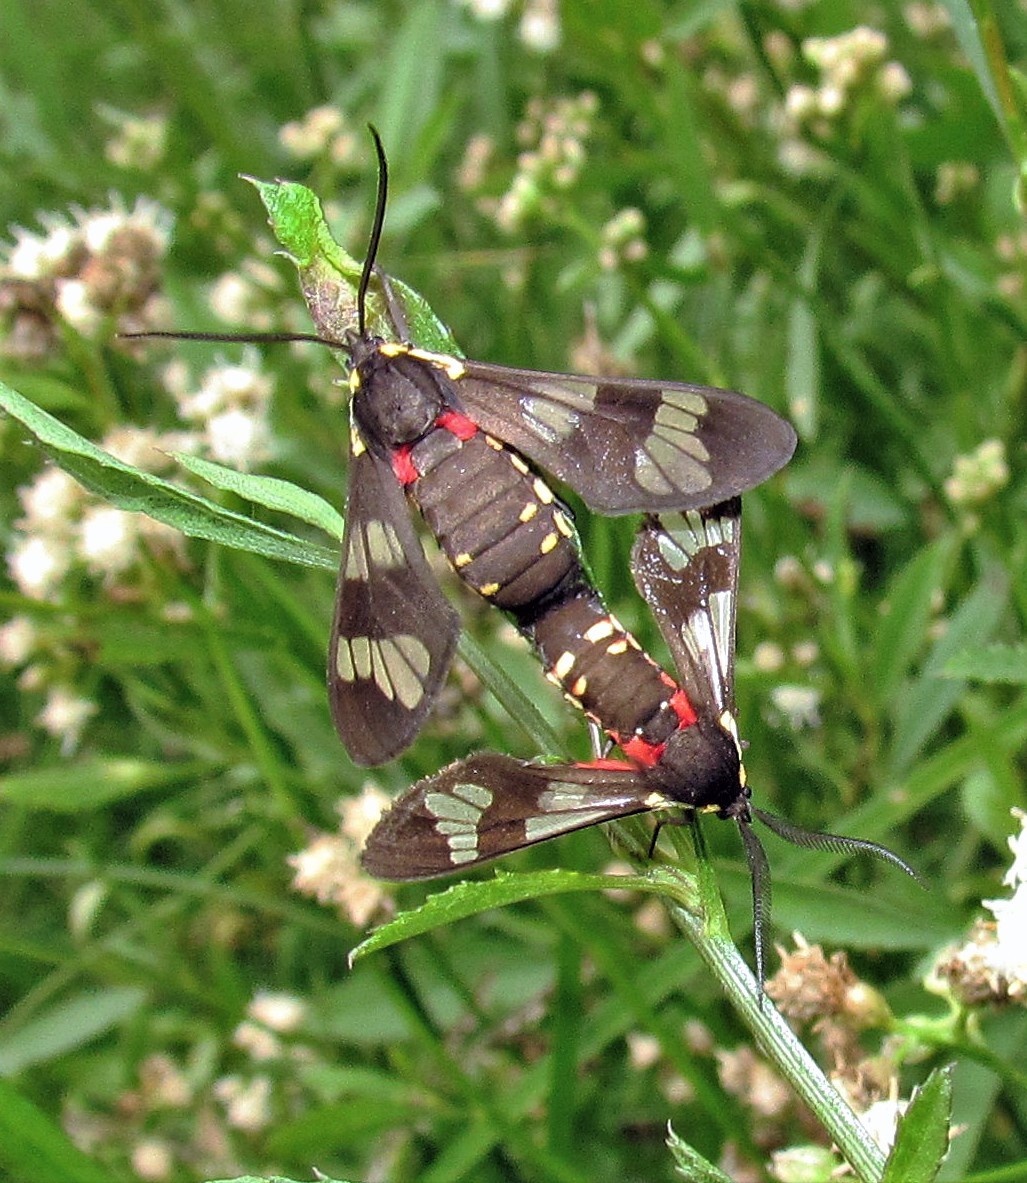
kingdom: Animalia
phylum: Arthropoda
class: Insecta
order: Lepidoptera
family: Erebidae
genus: Eurata
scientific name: Eurata hermione
